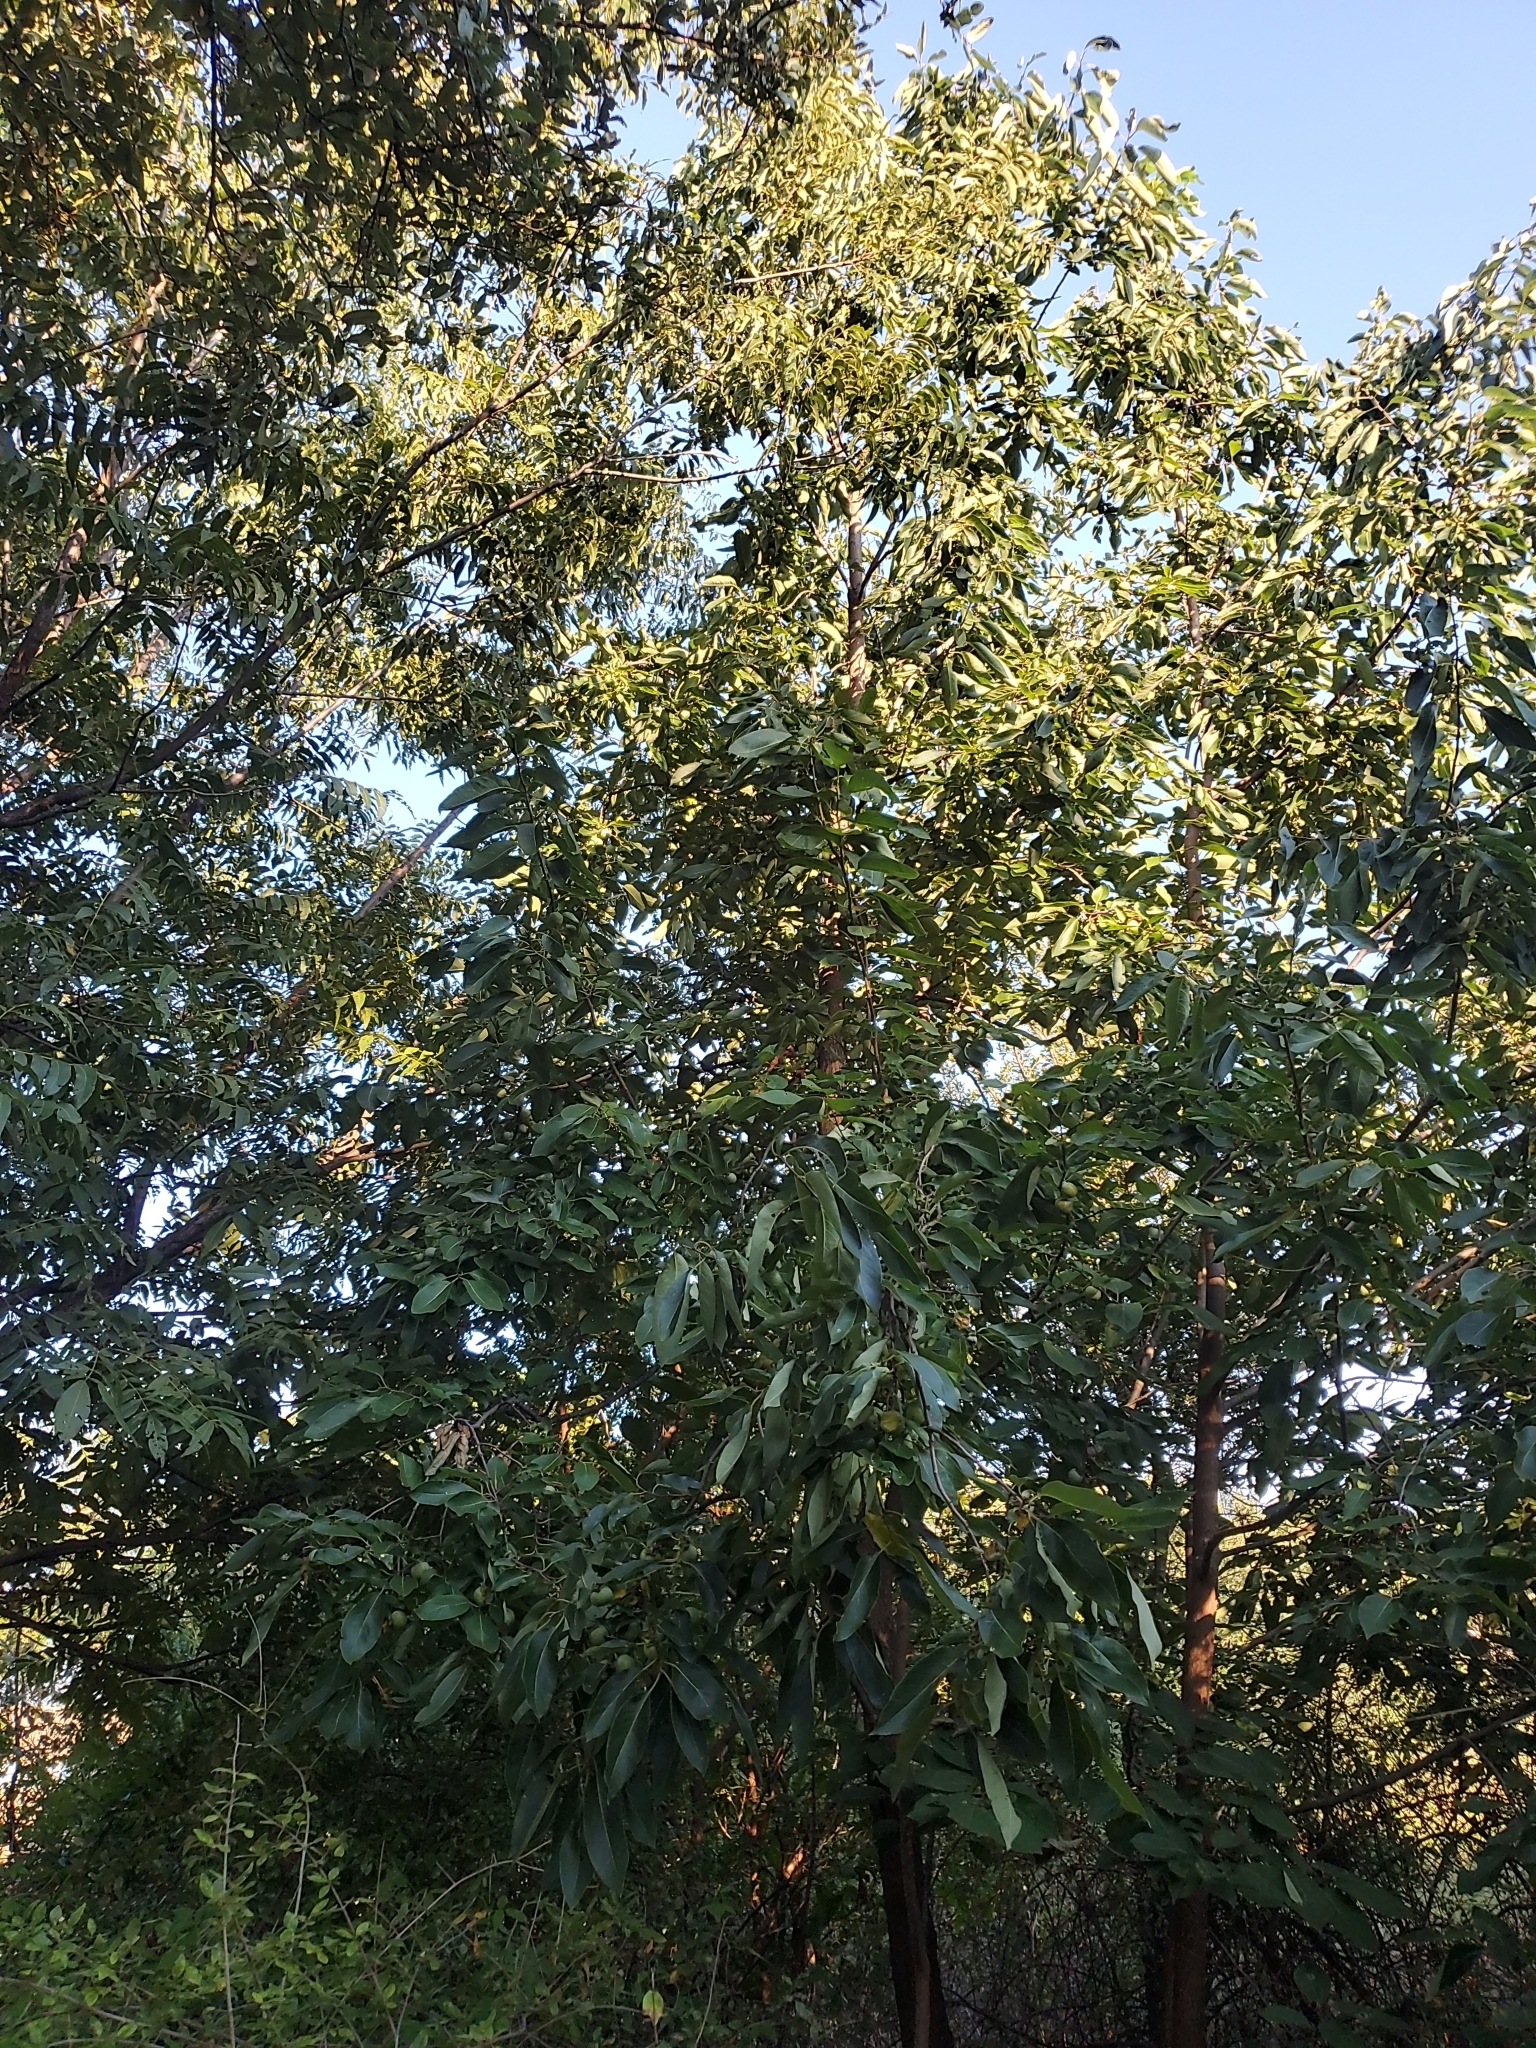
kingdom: Plantae
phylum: Tracheophyta
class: Magnoliopsida
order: Ericales
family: Ebenaceae
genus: Diospyros
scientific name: Diospyros virginiana
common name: Persimmon
